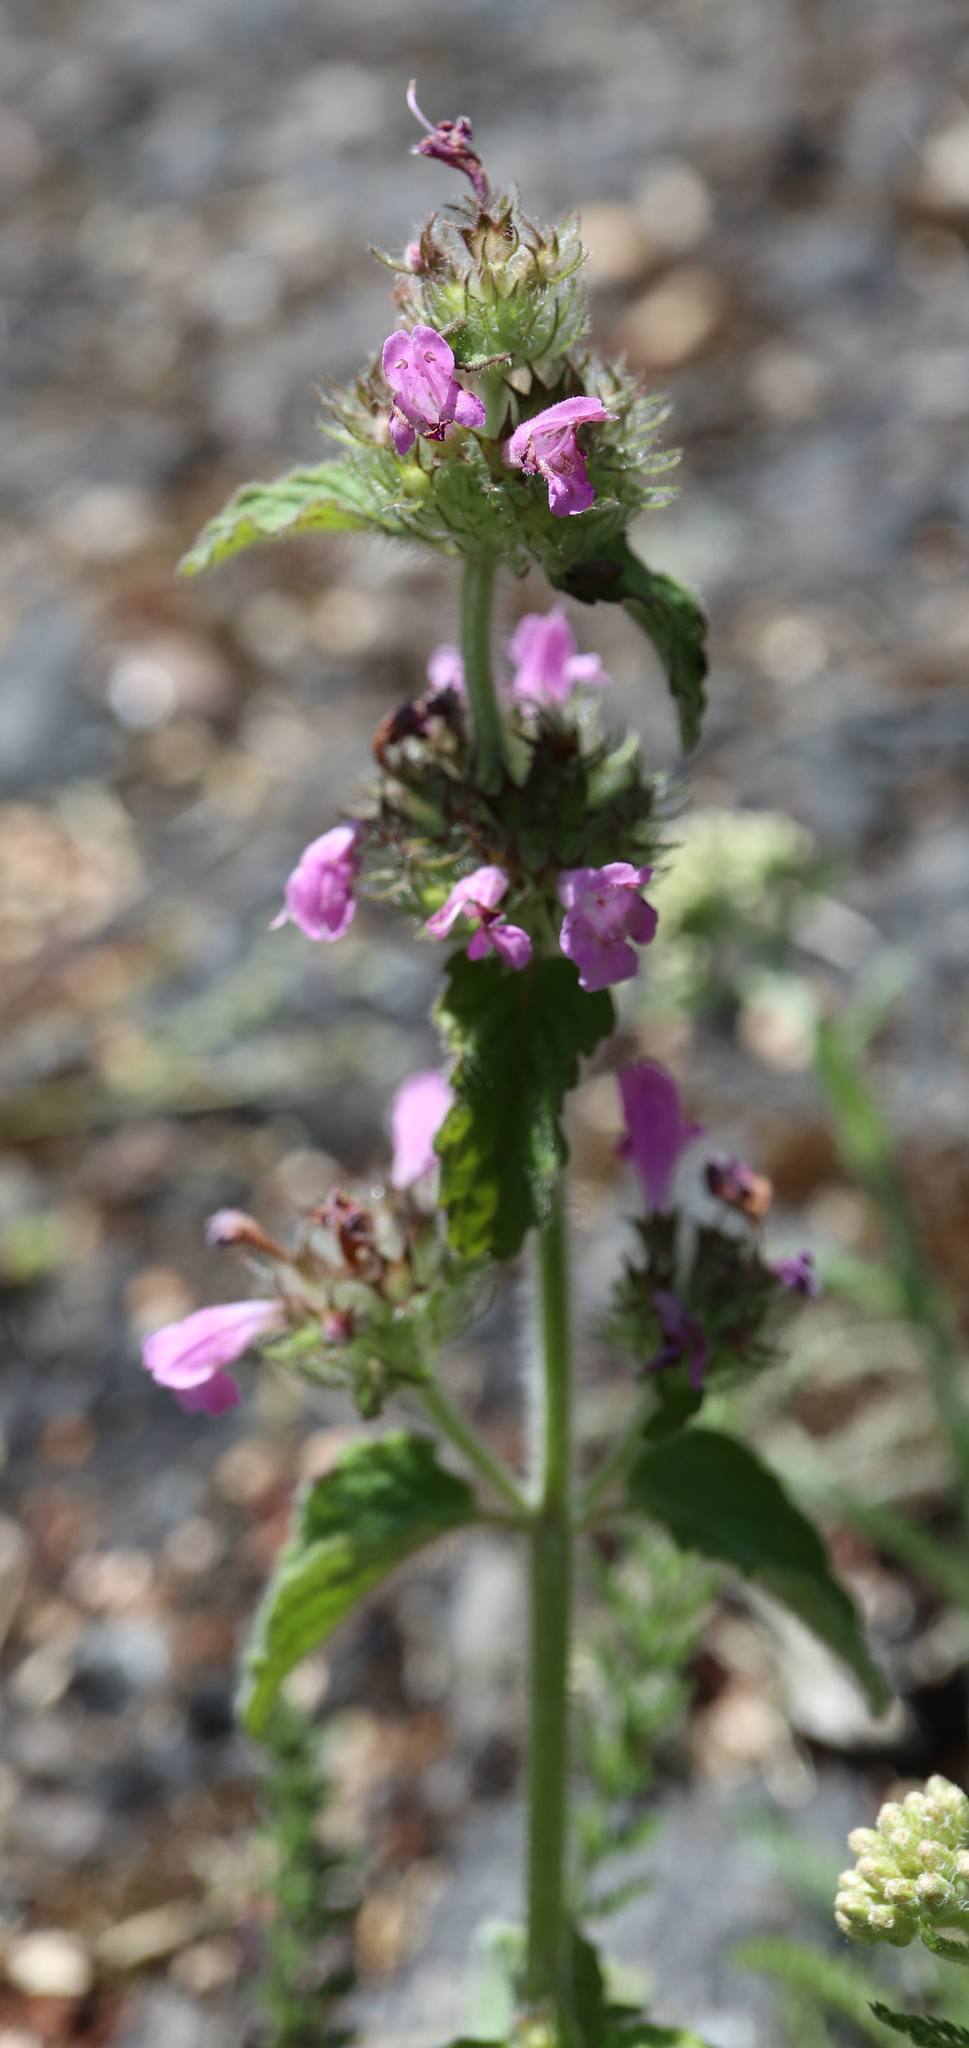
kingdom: Plantae
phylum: Tracheophyta
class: Magnoliopsida
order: Lamiales
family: Lamiaceae
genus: Clinopodium
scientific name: Clinopodium vulgare
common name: Wild basil
